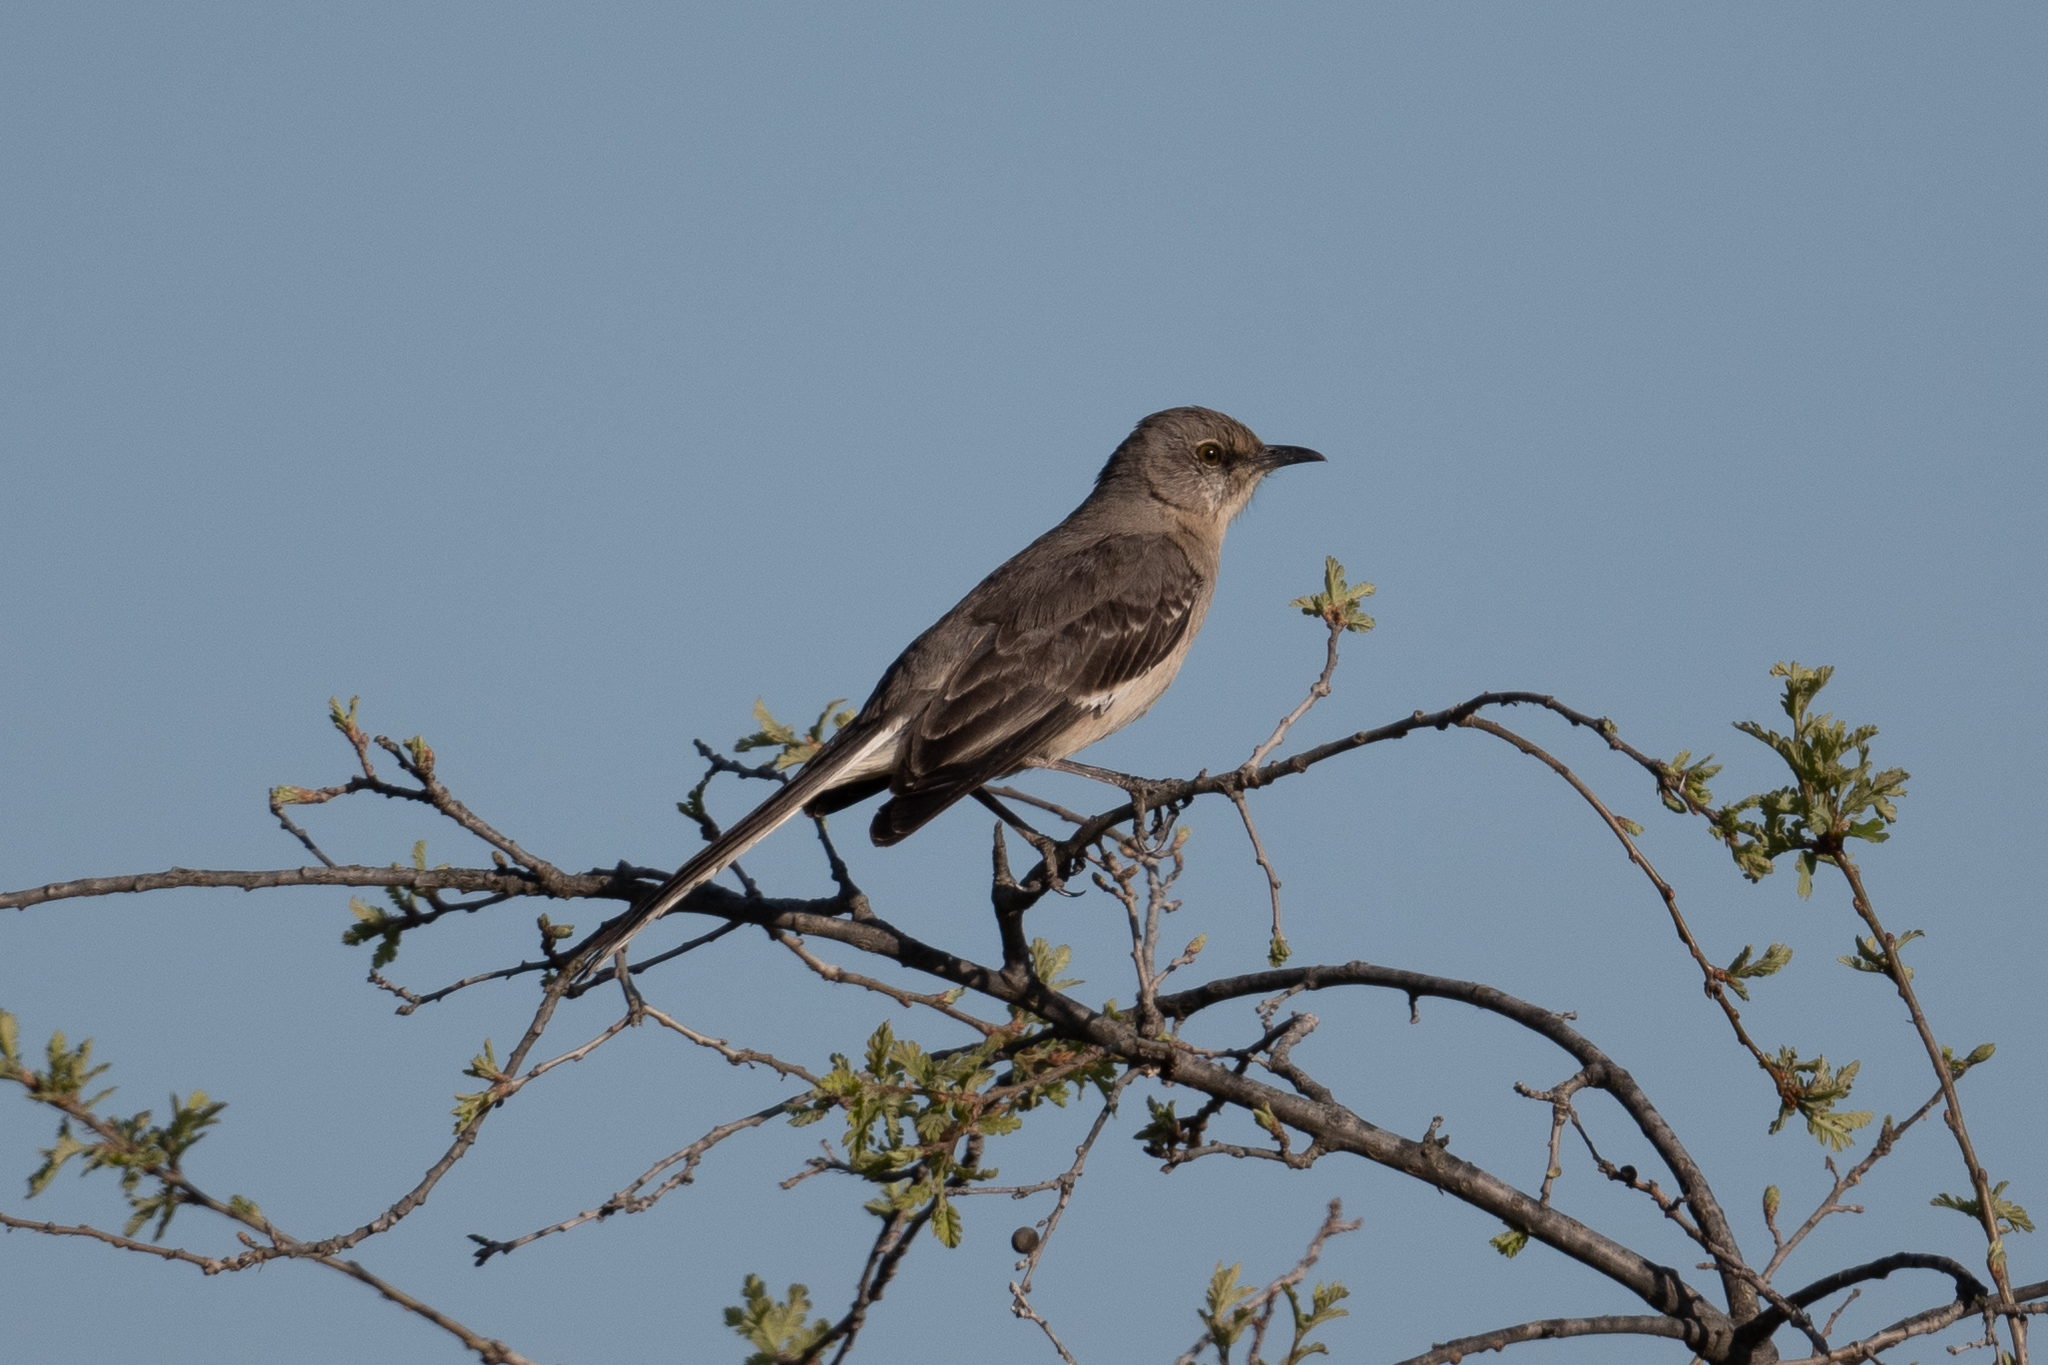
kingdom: Animalia
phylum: Chordata
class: Aves
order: Passeriformes
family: Mimidae
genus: Mimus
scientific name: Mimus polyglottos
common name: Northern mockingbird
